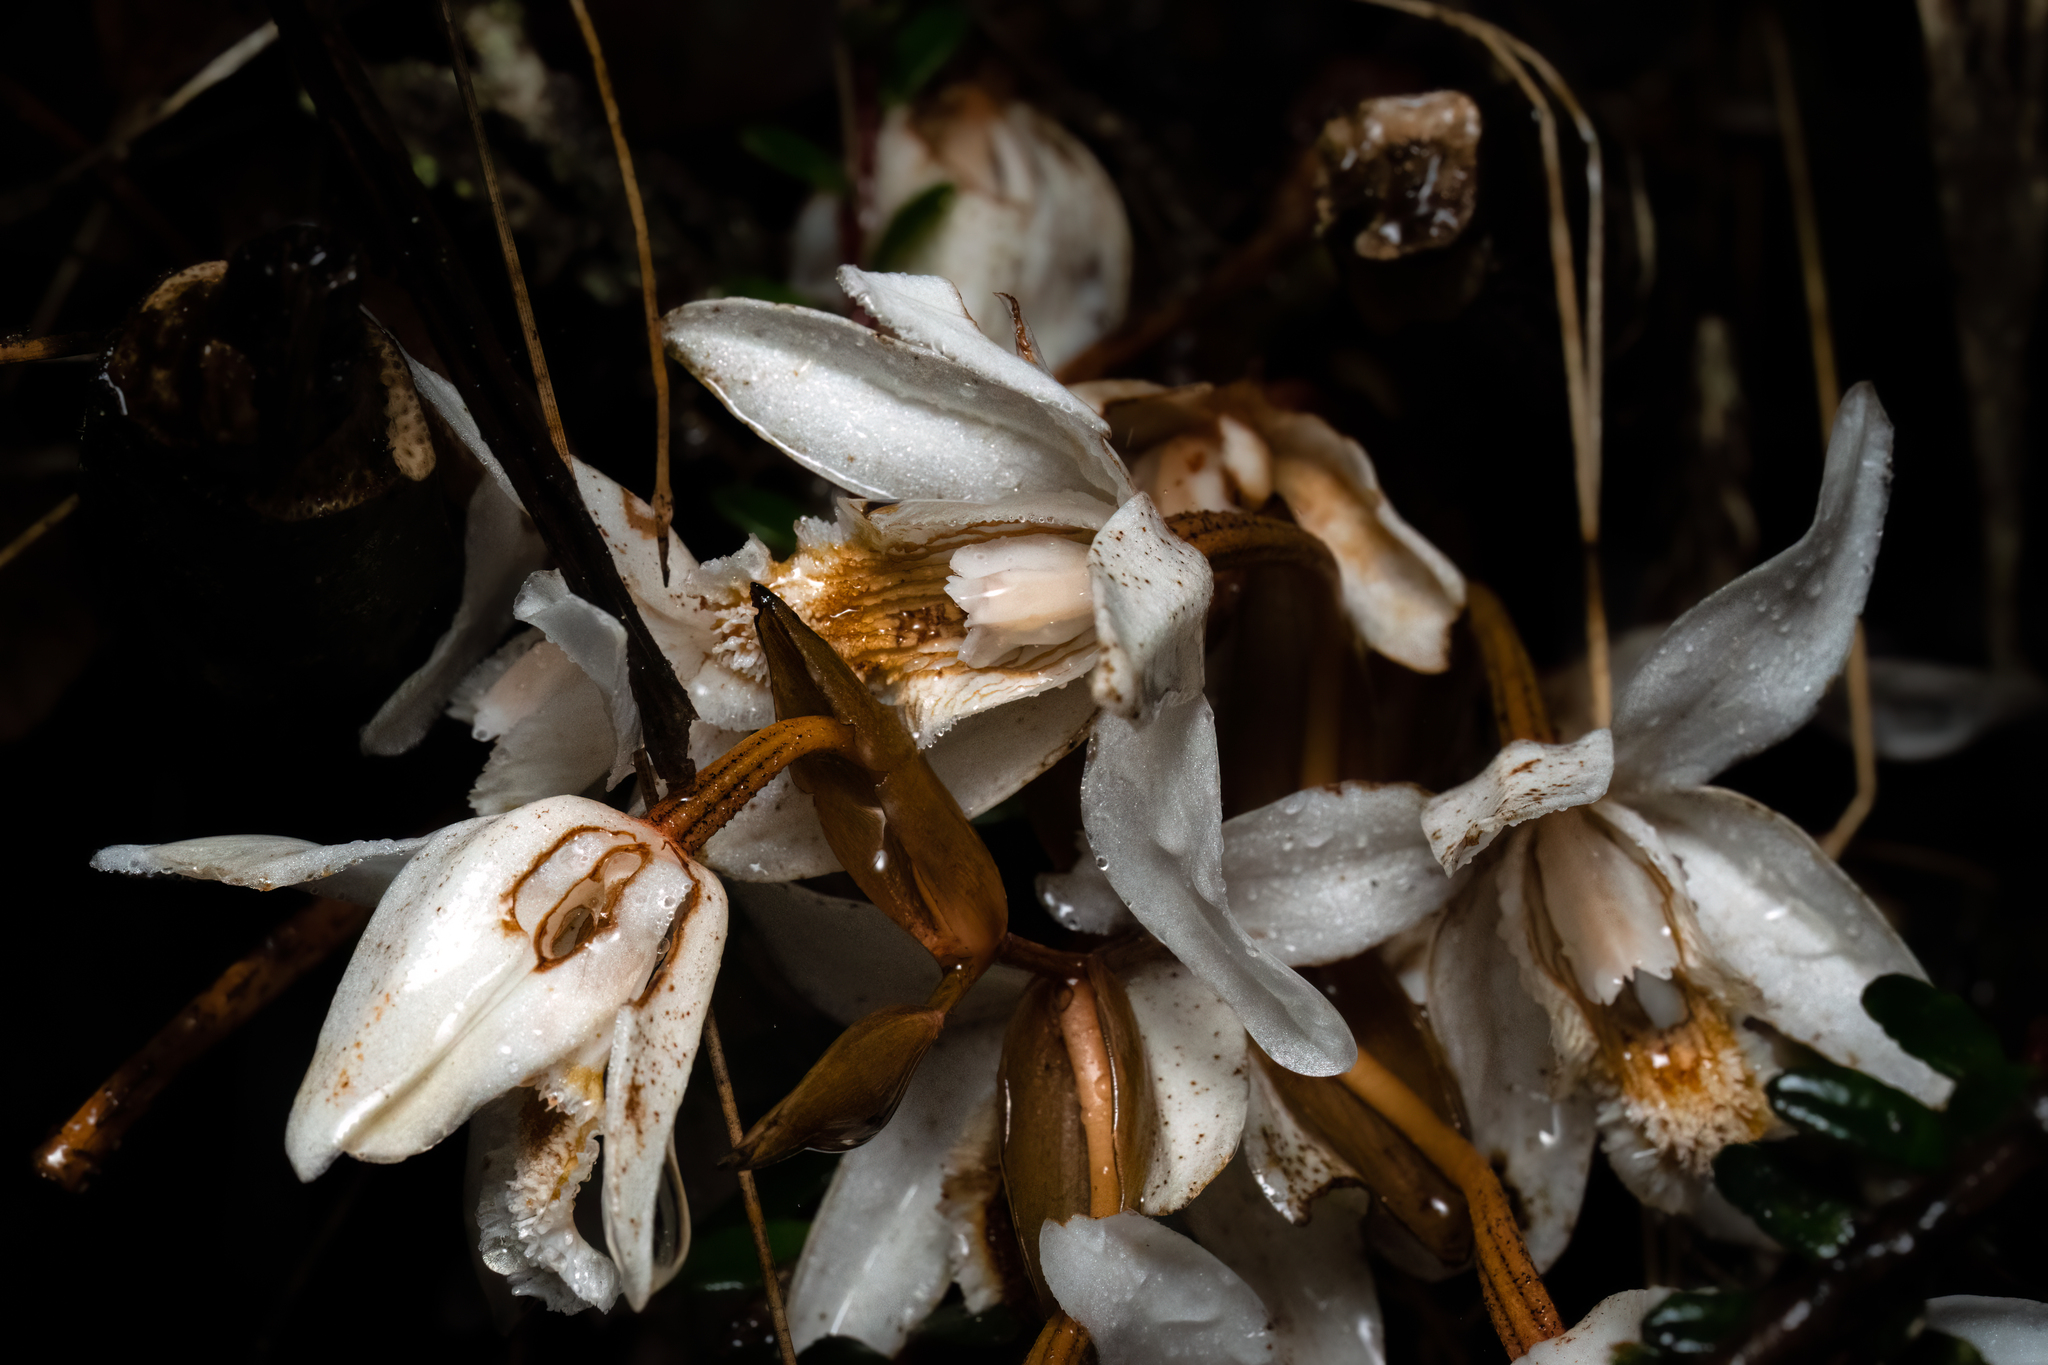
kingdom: Plantae
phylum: Tracheophyta
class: Liliopsida
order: Asparagales
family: Orchidaceae
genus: Coelogyne
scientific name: Coelogyne papillosa
